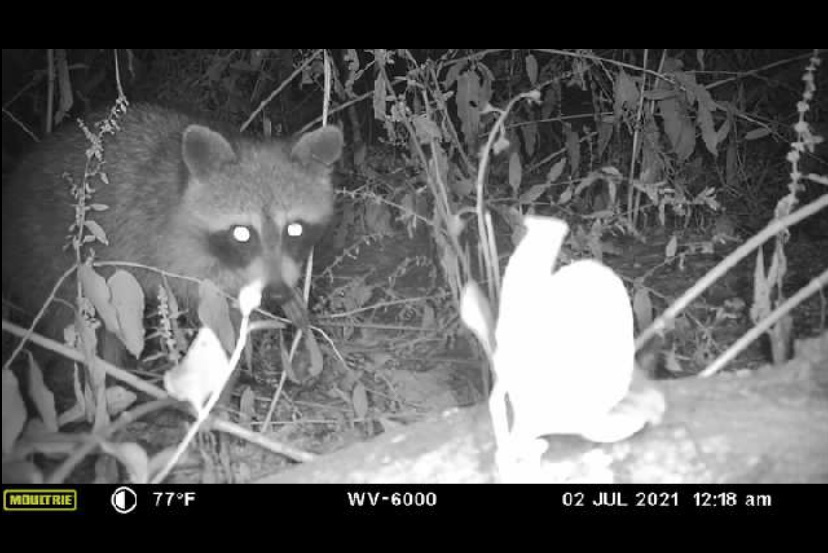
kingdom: Animalia
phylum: Chordata
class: Mammalia
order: Carnivora
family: Procyonidae
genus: Procyon
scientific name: Procyon lotor
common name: Raccoon
